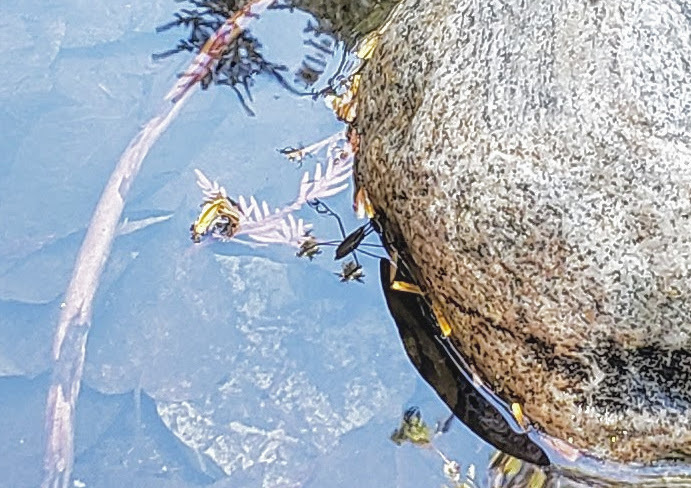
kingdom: Animalia
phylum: Arthropoda
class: Insecta
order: Hemiptera
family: Gerridae
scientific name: Gerridae
